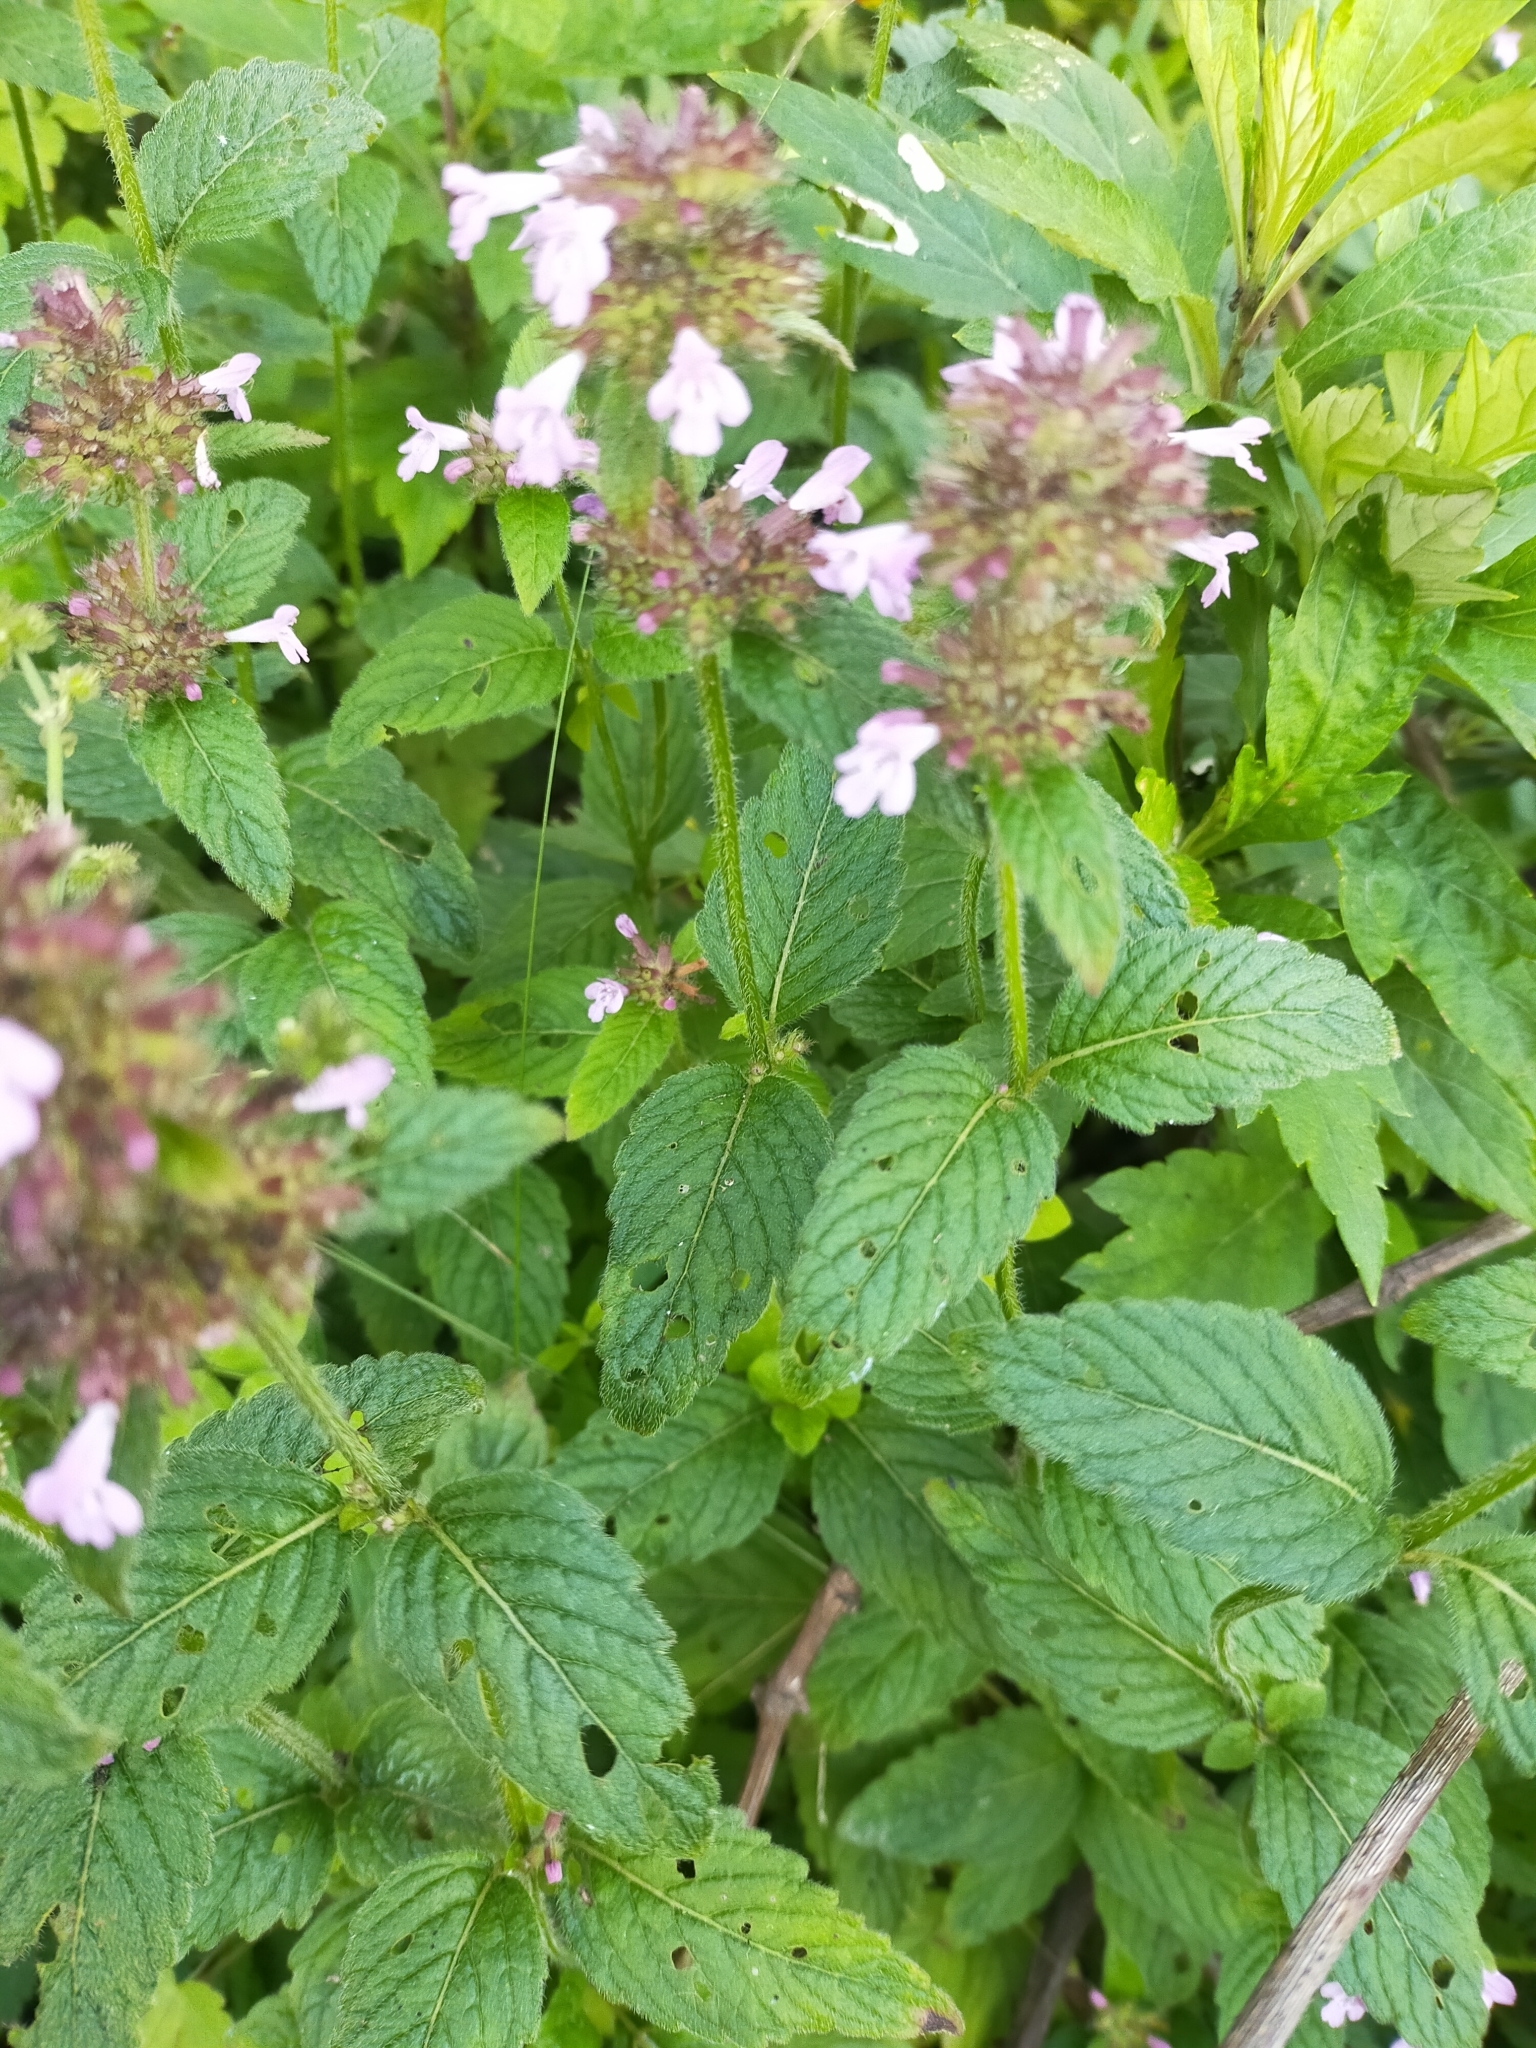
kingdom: Plantae
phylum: Tracheophyta
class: Magnoliopsida
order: Lamiales
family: Lamiaceae
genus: Clinopodium
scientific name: Clinopodium chinense
